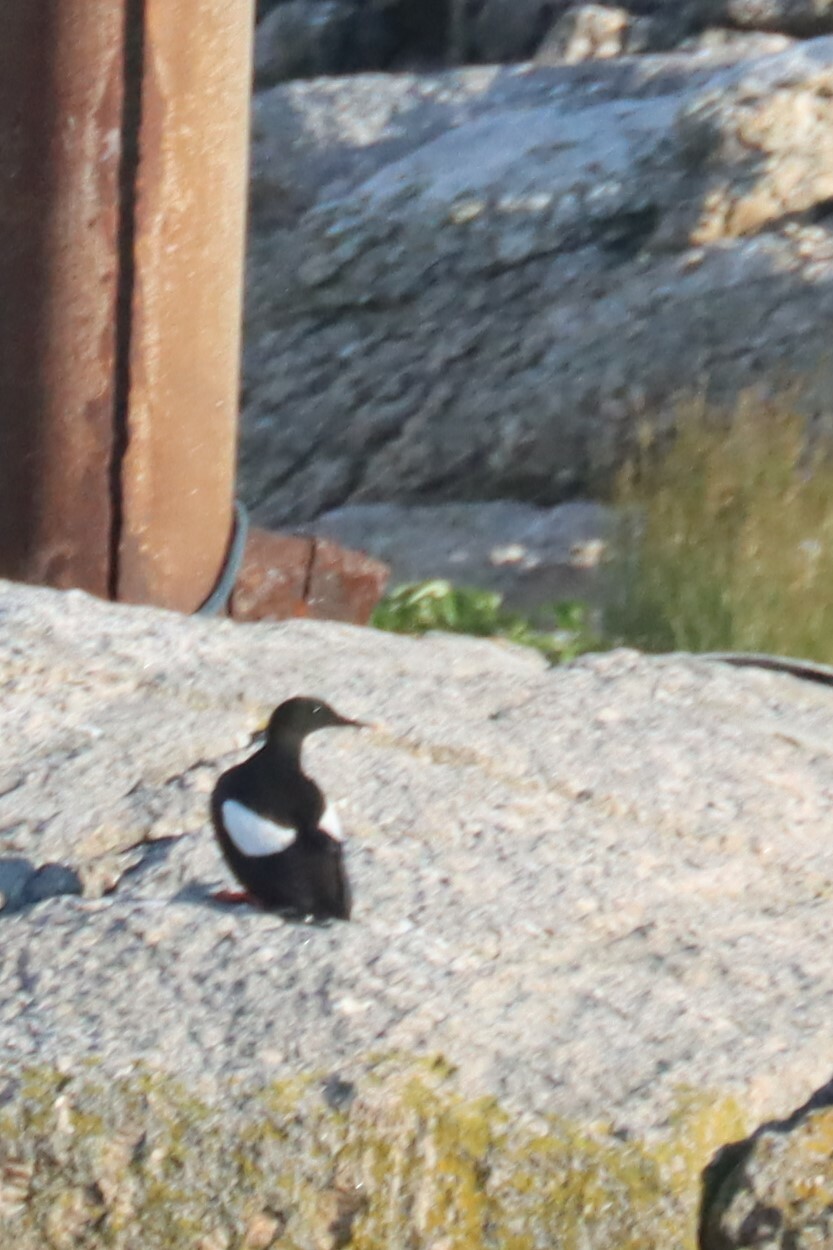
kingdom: Animalia
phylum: Chordata
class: Aves
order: Charadriiformes
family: Alcidae
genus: Cepphus
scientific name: Cepphus grylle
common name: Black guillemot
